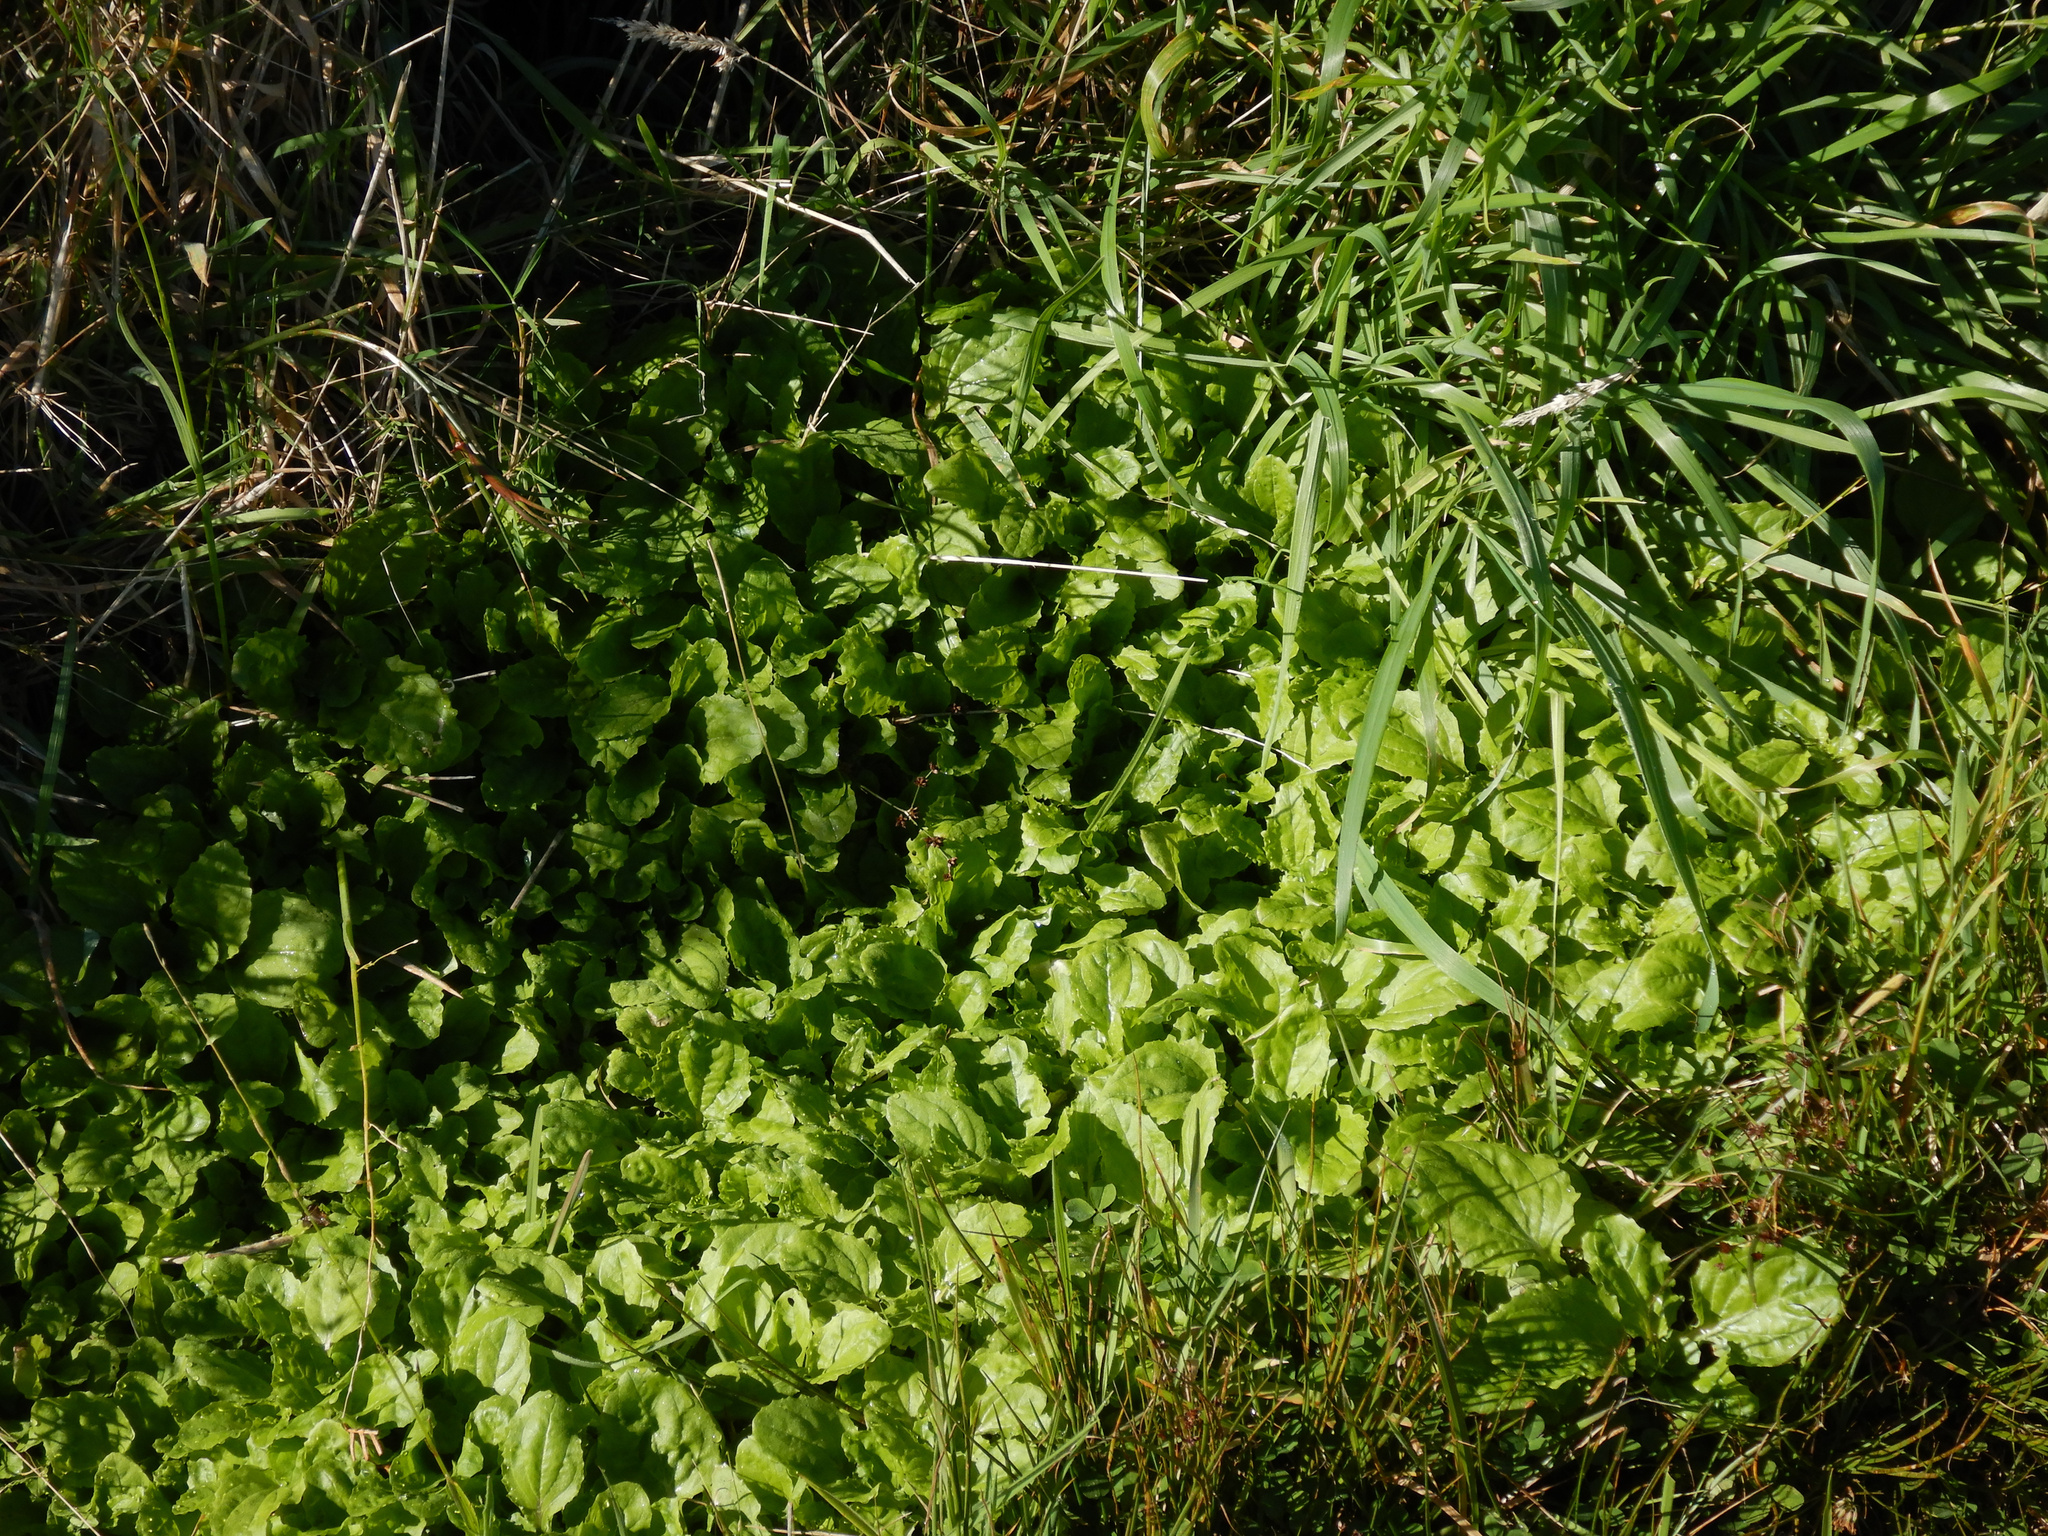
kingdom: Plantae
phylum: Tracheophyta
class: Magnoliopsida
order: Lamiales
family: Phrymaceae
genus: Erythranthe
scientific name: Erythranthe guttata
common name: Monkeyflower
